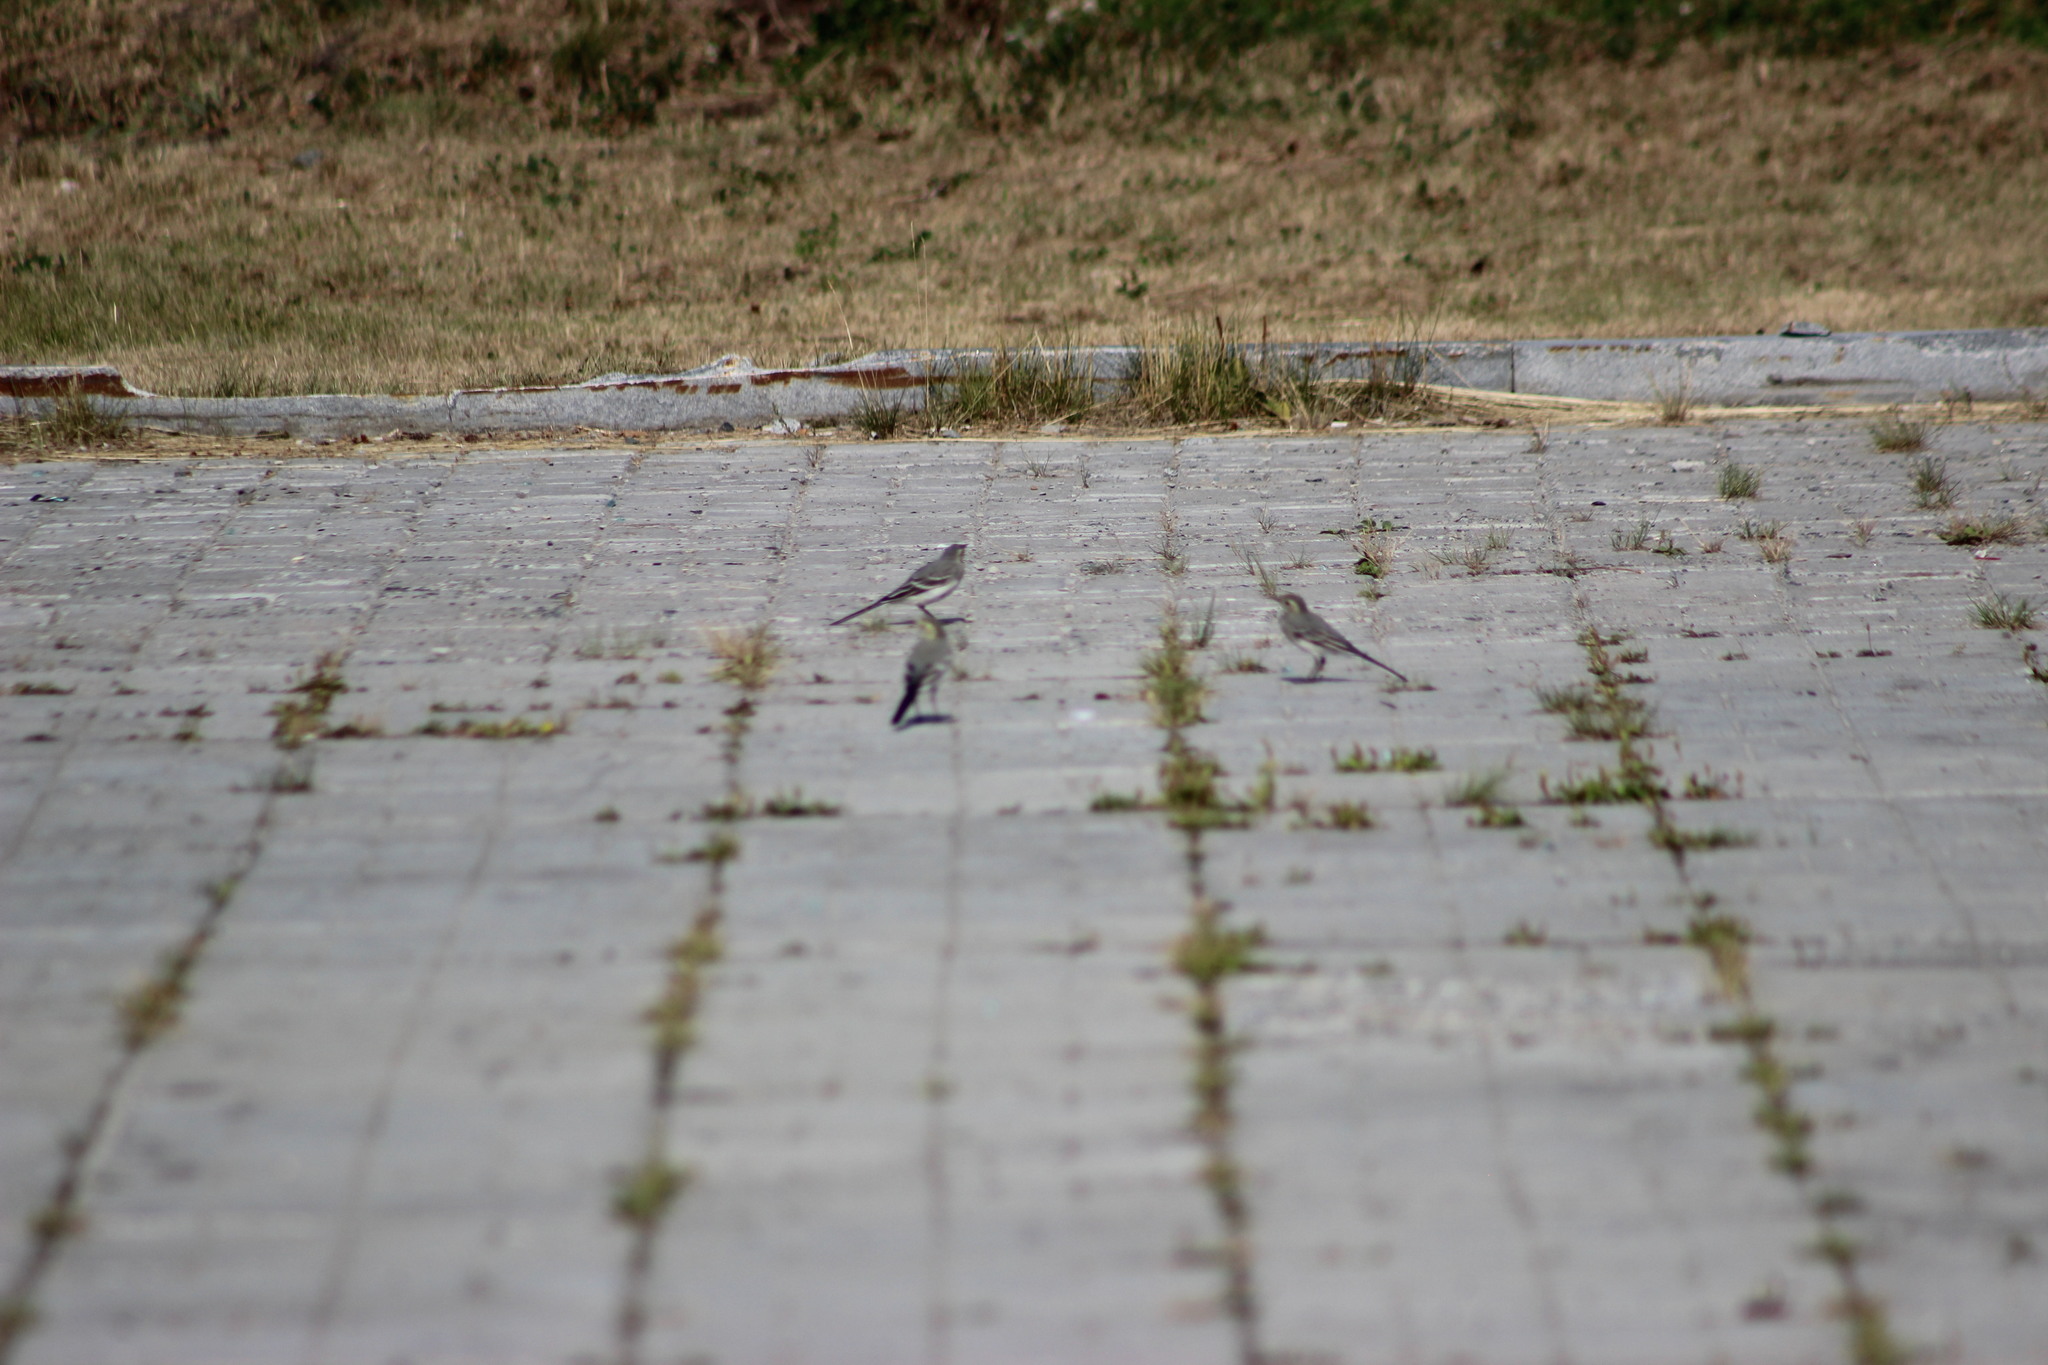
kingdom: Animalia
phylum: Chordata
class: Aves
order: Passeriformes
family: Motacillidae
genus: Motacilla
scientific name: Motacilla alba
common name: White wagtail
